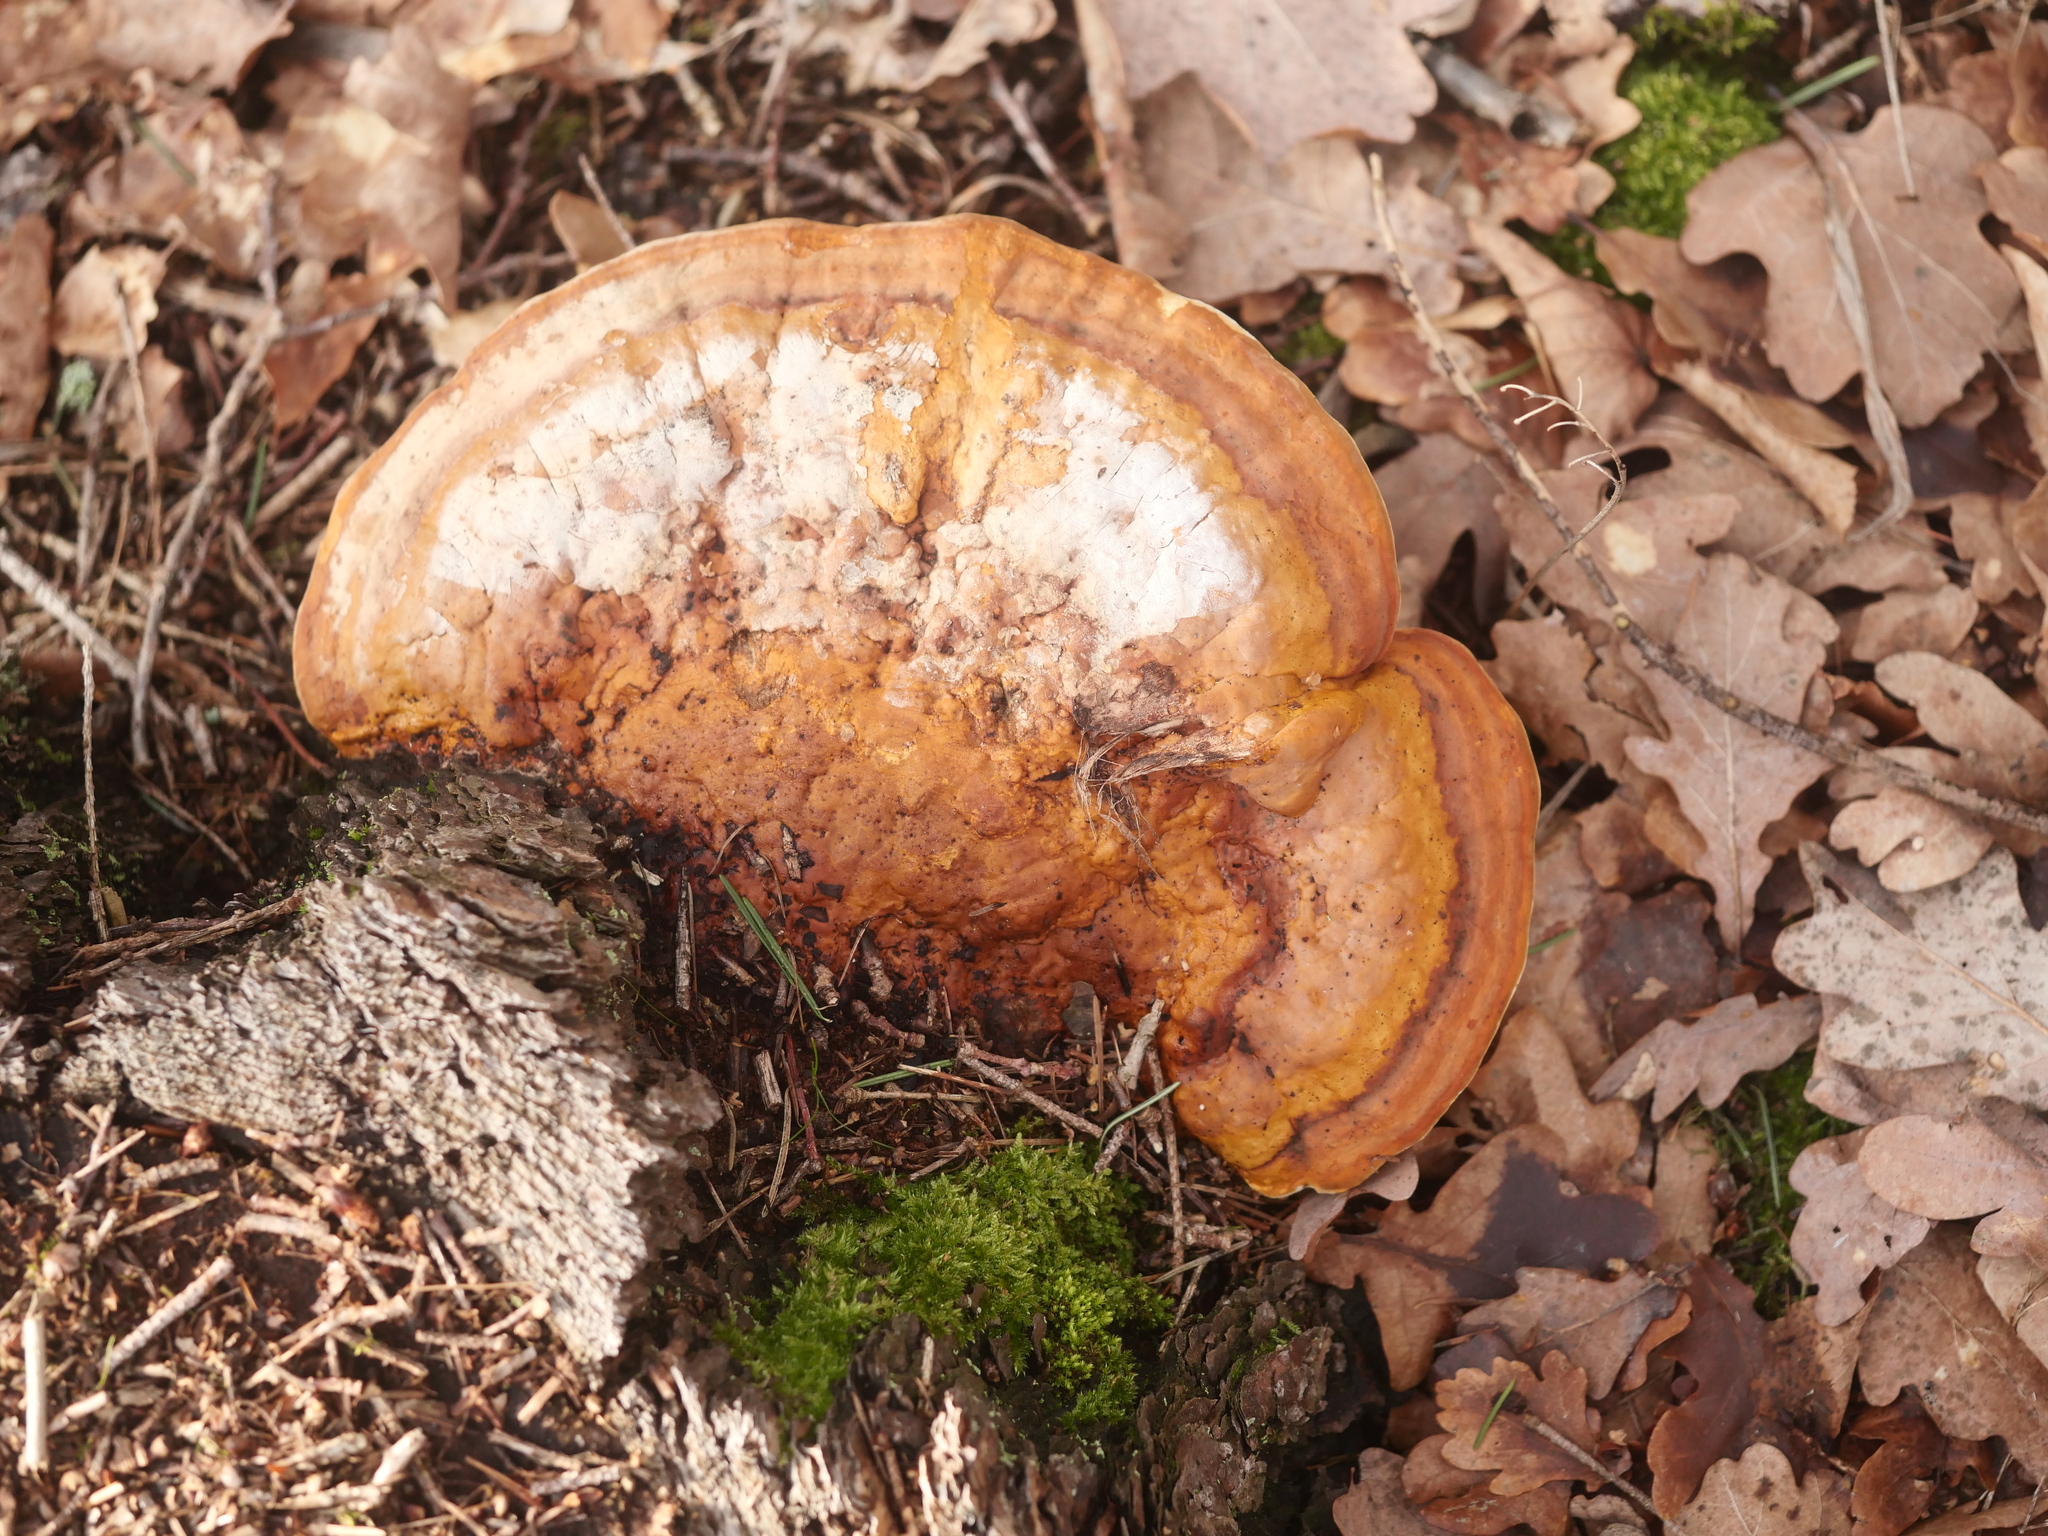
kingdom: Fungi
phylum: Basidiomycota
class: Agaricomycetes
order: Polyporales
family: Fomitopsidaceae
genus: Fomitopsis
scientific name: Fomitopsis pinicola
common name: Red-belted bracket
